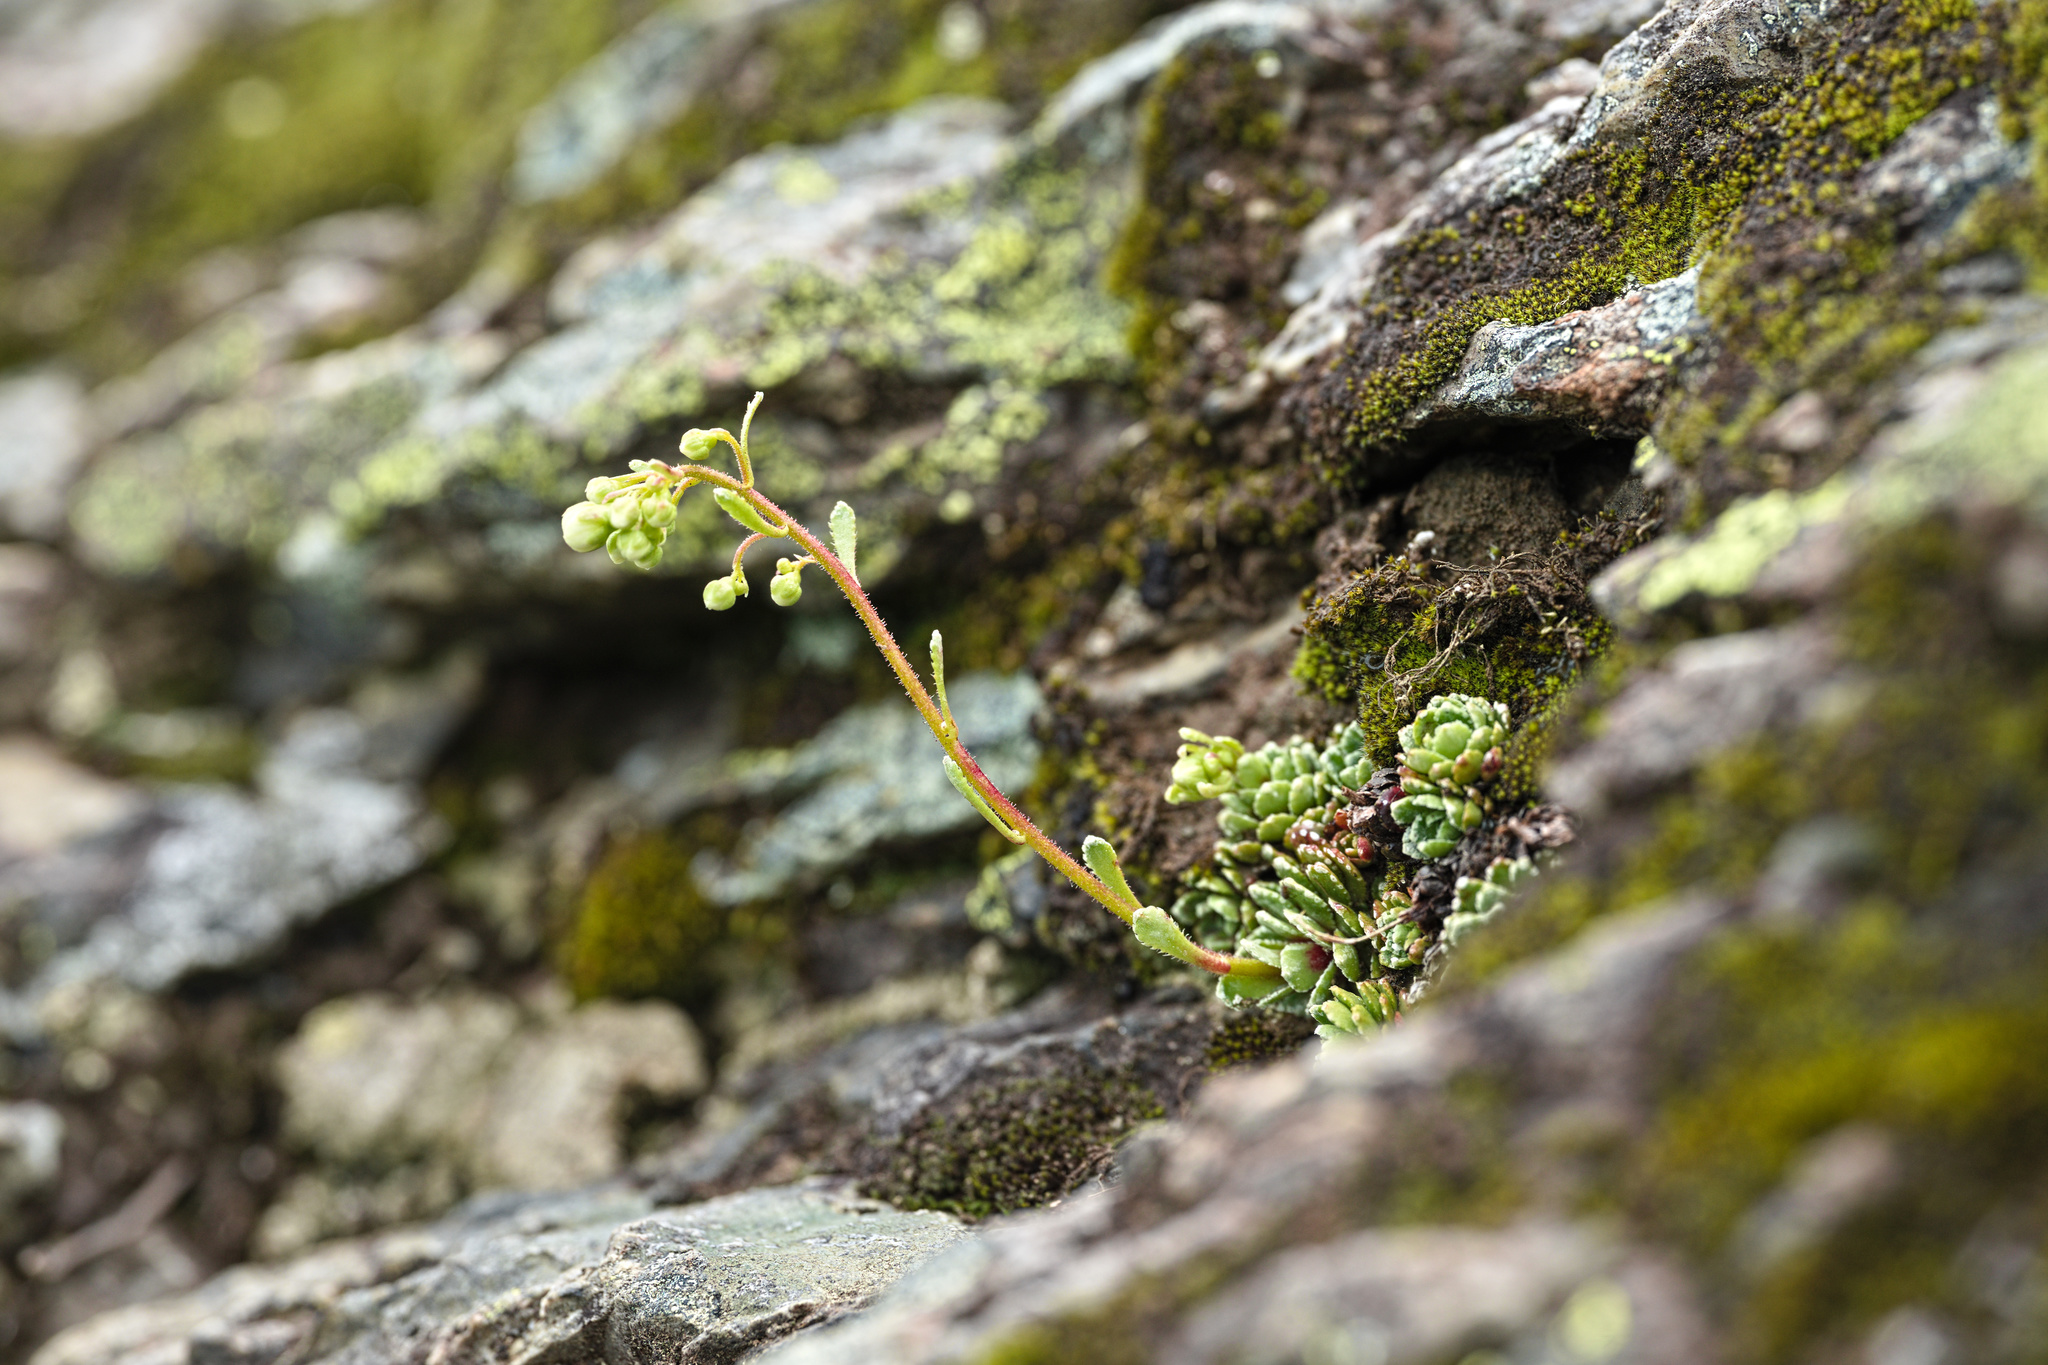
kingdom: Plantae
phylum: Tracheophyta
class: Magnoliopsida
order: Saxifragales
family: Saxifragaceae
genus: Saxifraga
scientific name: Saxifraga paniculata
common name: Livelong saxifrage
